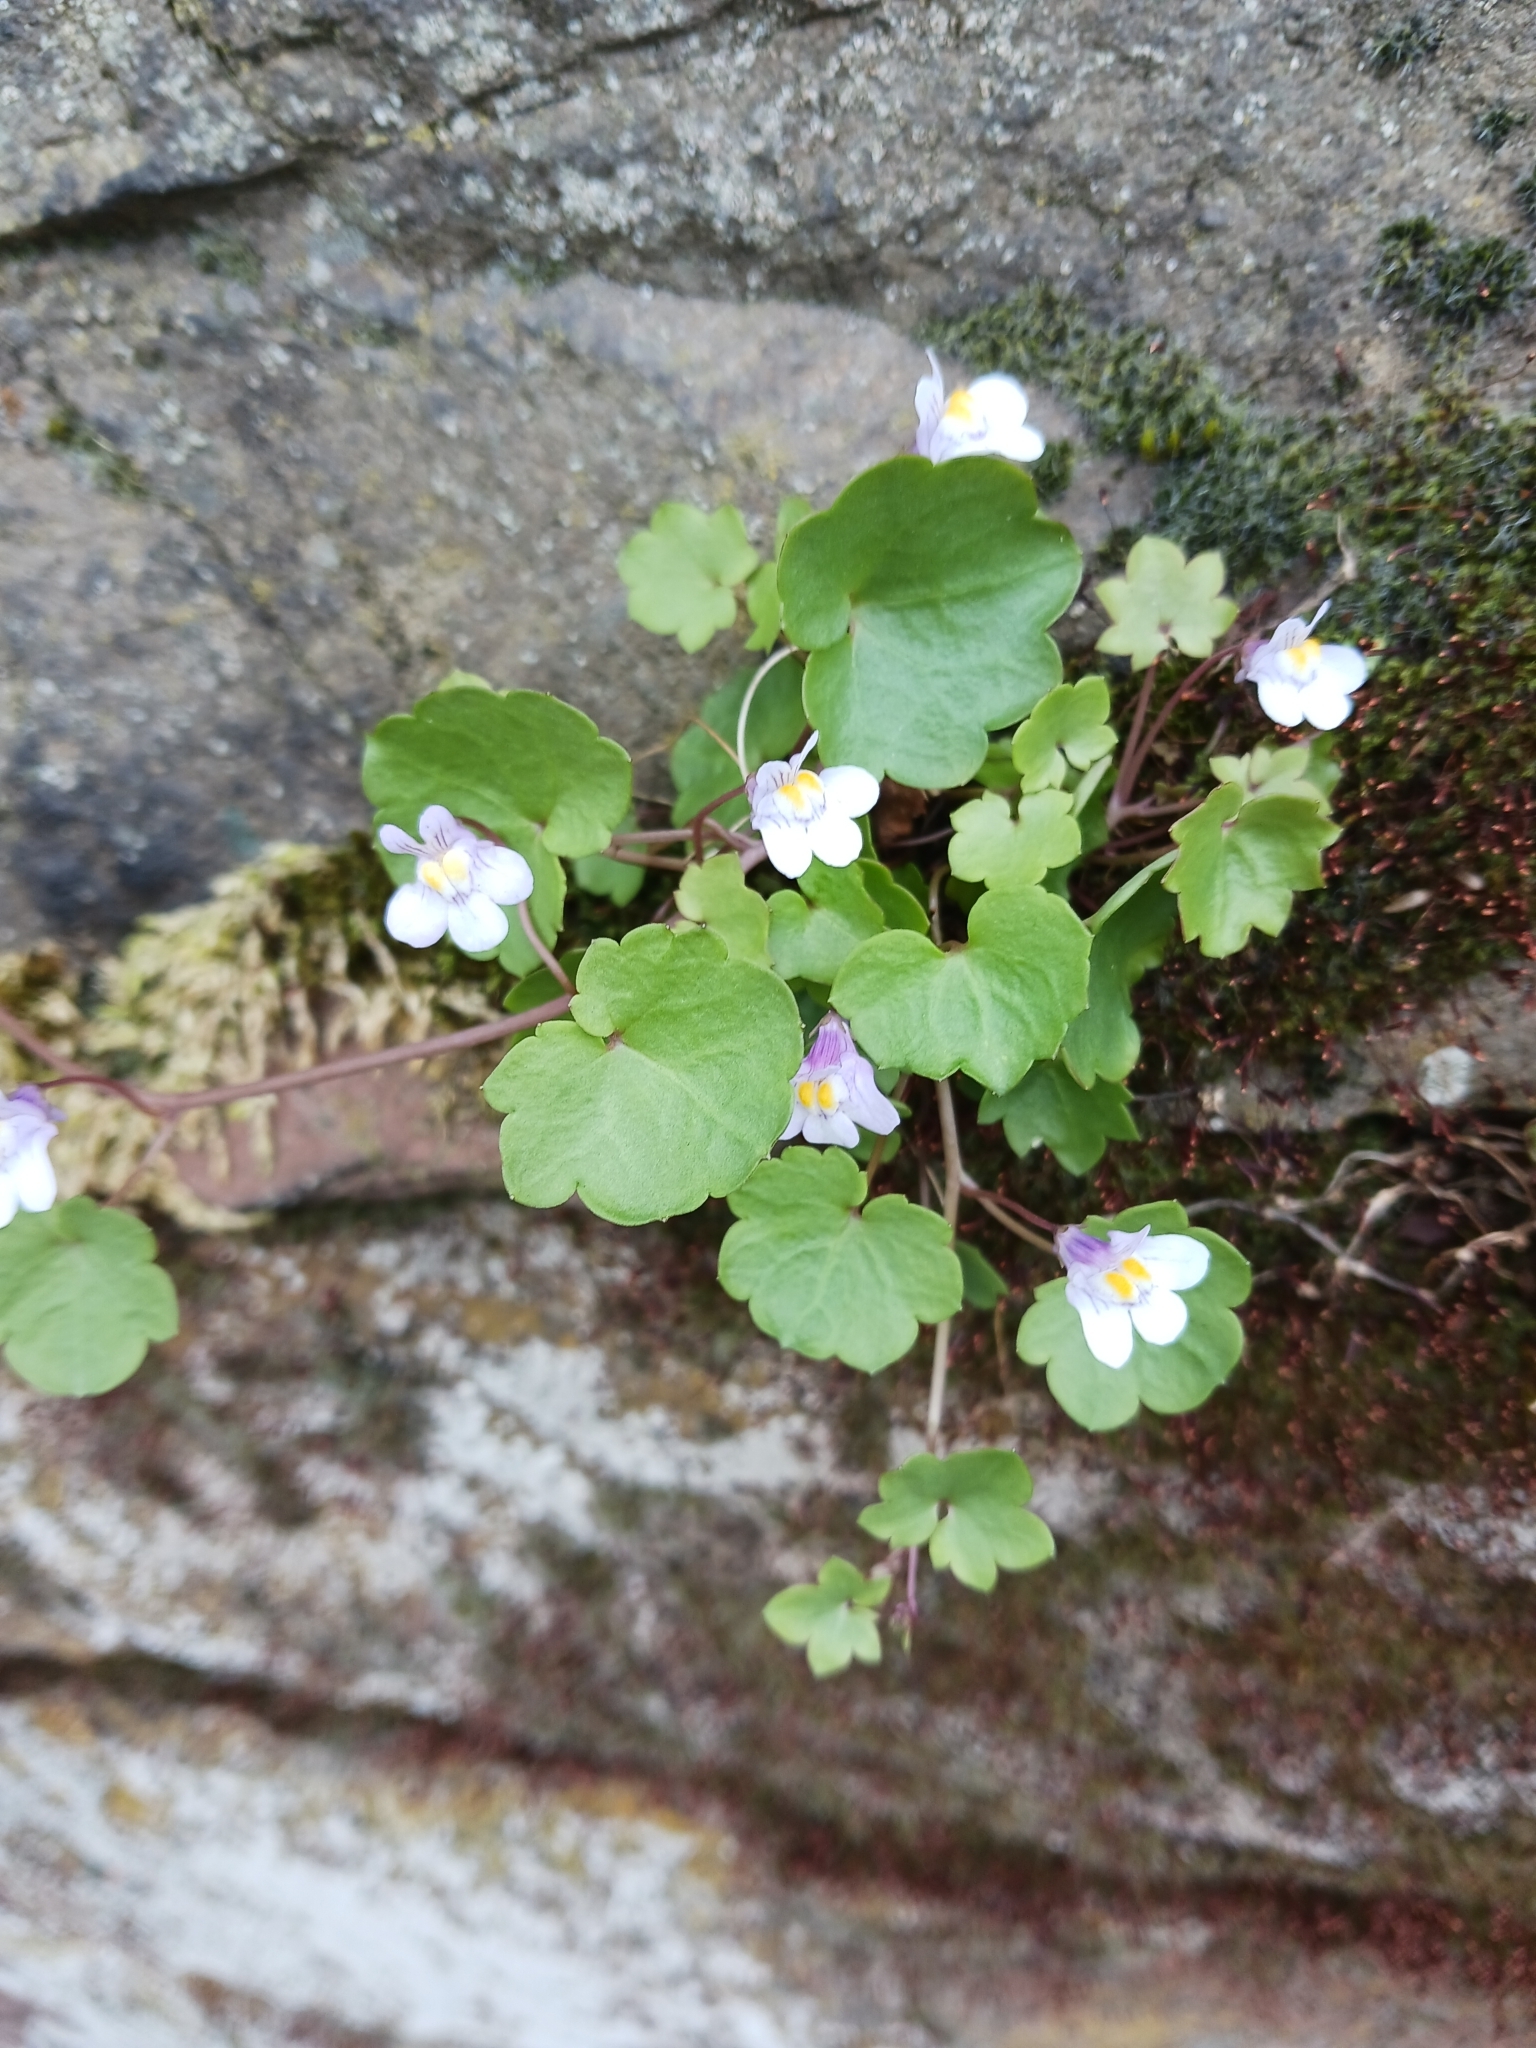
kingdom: Plantae
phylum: Tracheophyta
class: Magnoliopsida
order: Lamiales
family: Plantaginaceae
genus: Cymbalaria
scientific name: Cymbalaria muralis
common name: Ivy-leaved toadflax
